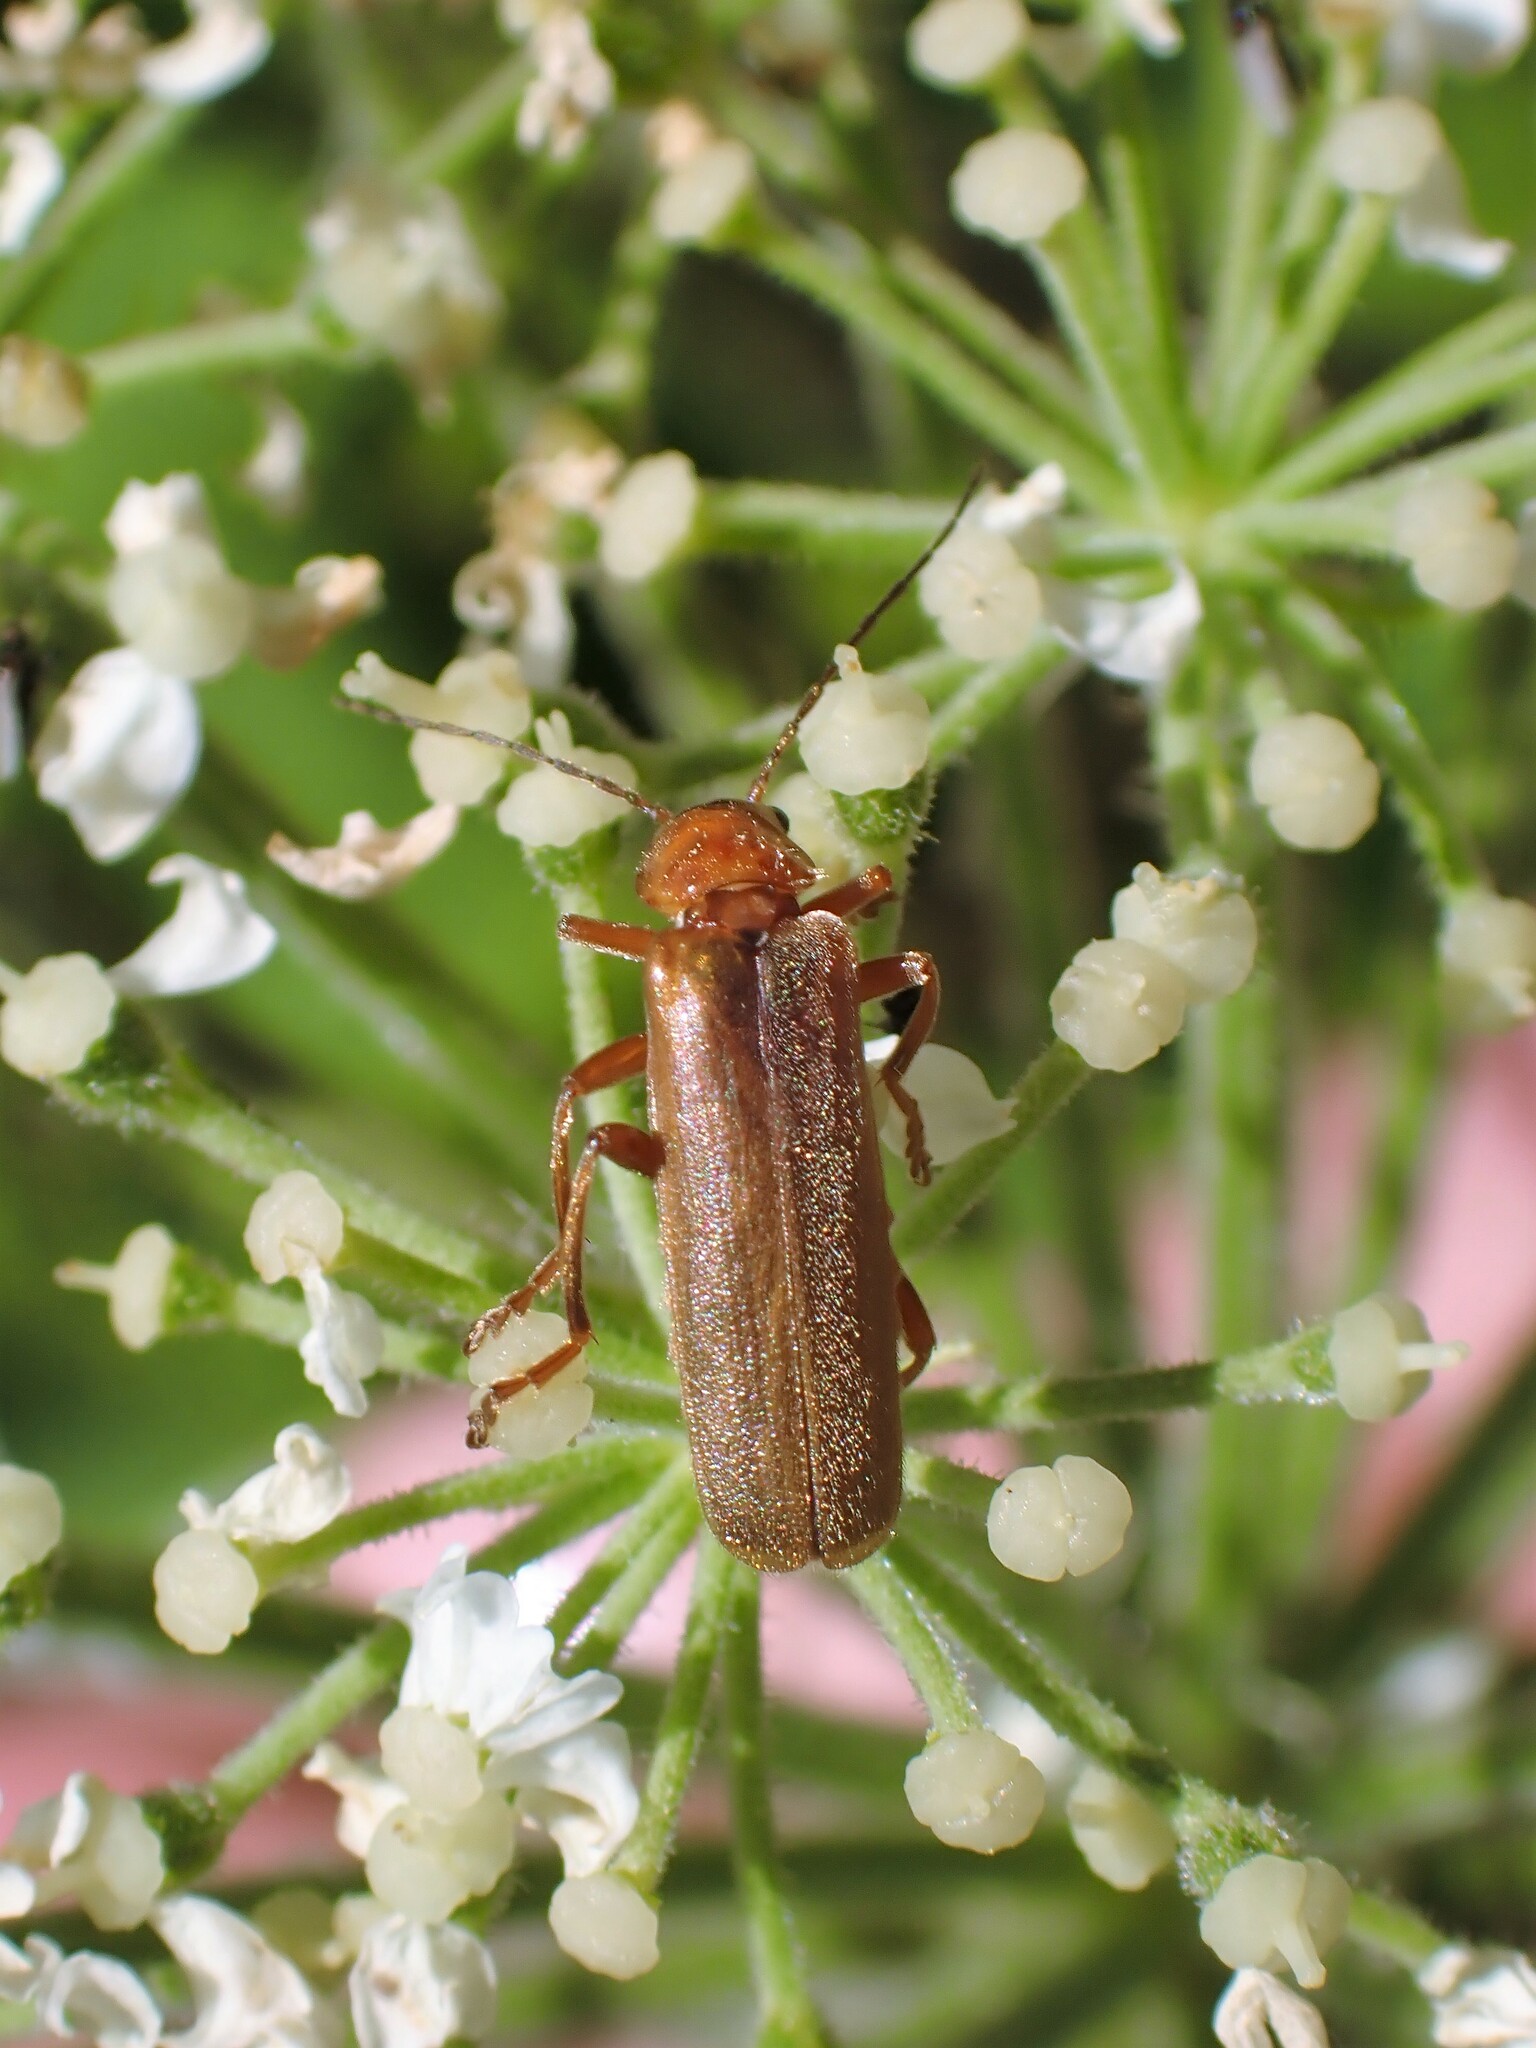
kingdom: Animalia
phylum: Arthropoda
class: Insecta
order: Coleoptera
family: Cantharidae
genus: Cantharis
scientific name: Cantharis rufa
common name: Red-spotted soldier beetle
